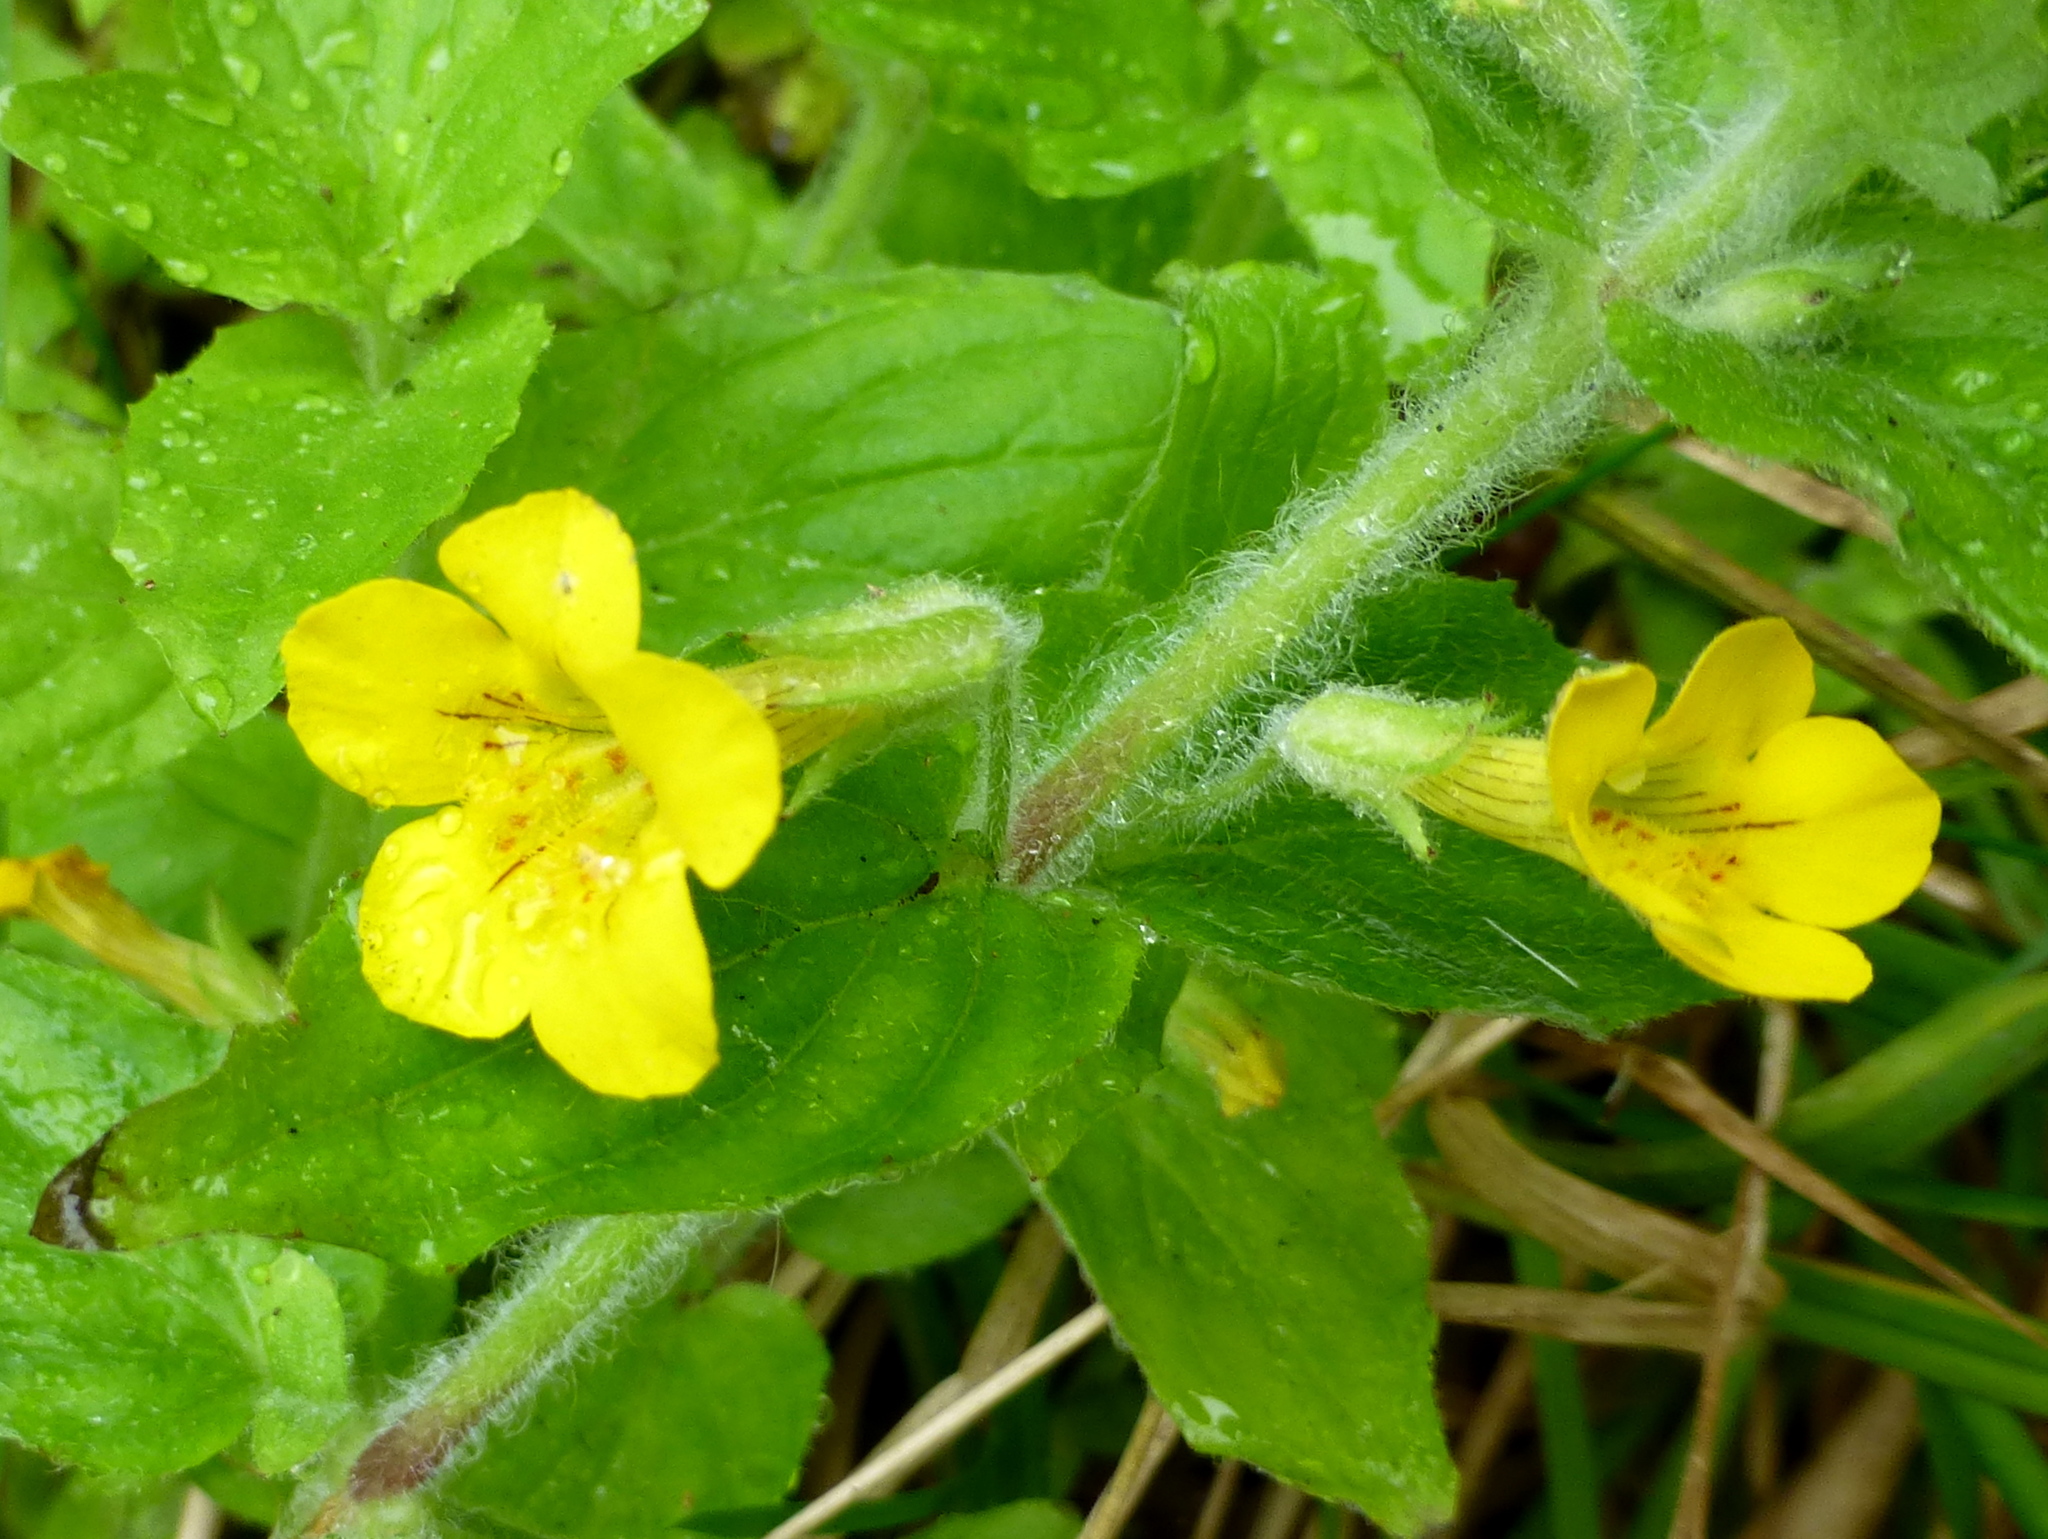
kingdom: Plantae
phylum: Tracheophyta
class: Magnoliopsida
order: Lamiales
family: Phrymaceae
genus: Erythranthe
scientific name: Erythranthe moschata
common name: Muskflower
